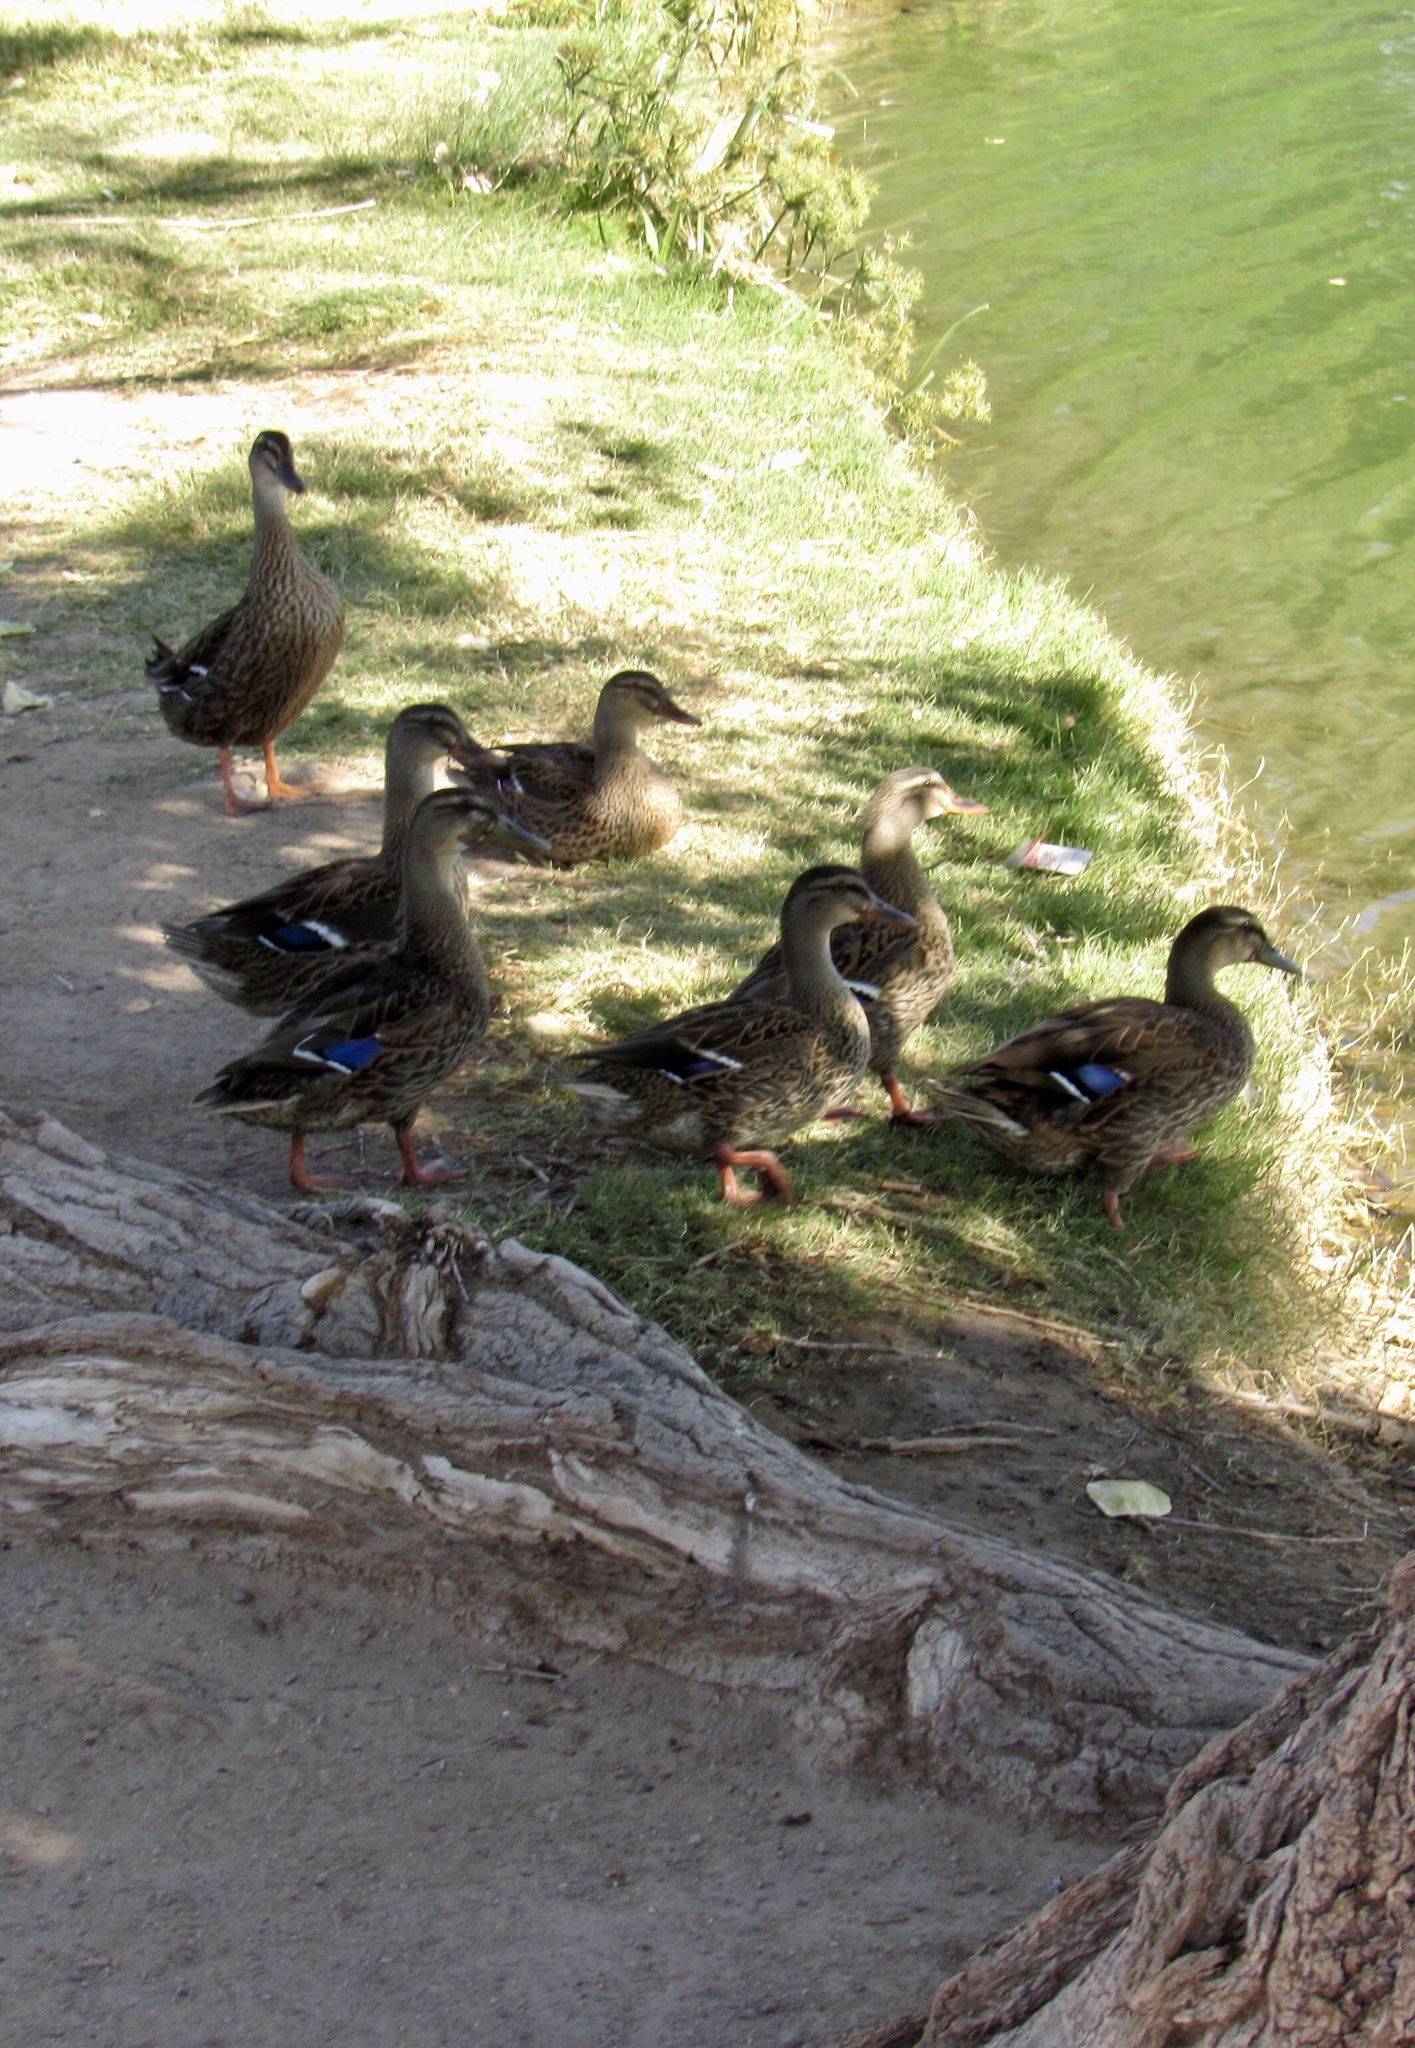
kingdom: Animalia
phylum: Chordata
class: Aves
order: Anseriformes
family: Anatidae
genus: Anas
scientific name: Anas platyrhynchos
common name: Mallard
